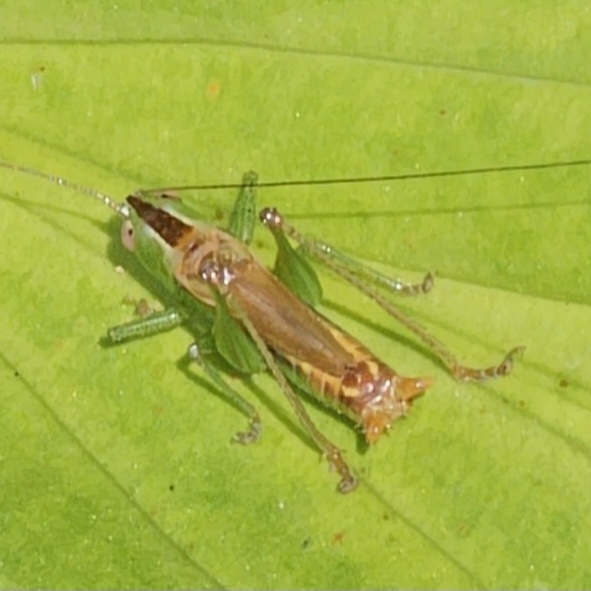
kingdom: Animalia
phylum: Arthropoda
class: Insecta
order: Orthoptera
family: Tettigoniidae
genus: Conocephalus
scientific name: Conocephalus brevipennis
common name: Short-winged meadow katydid
